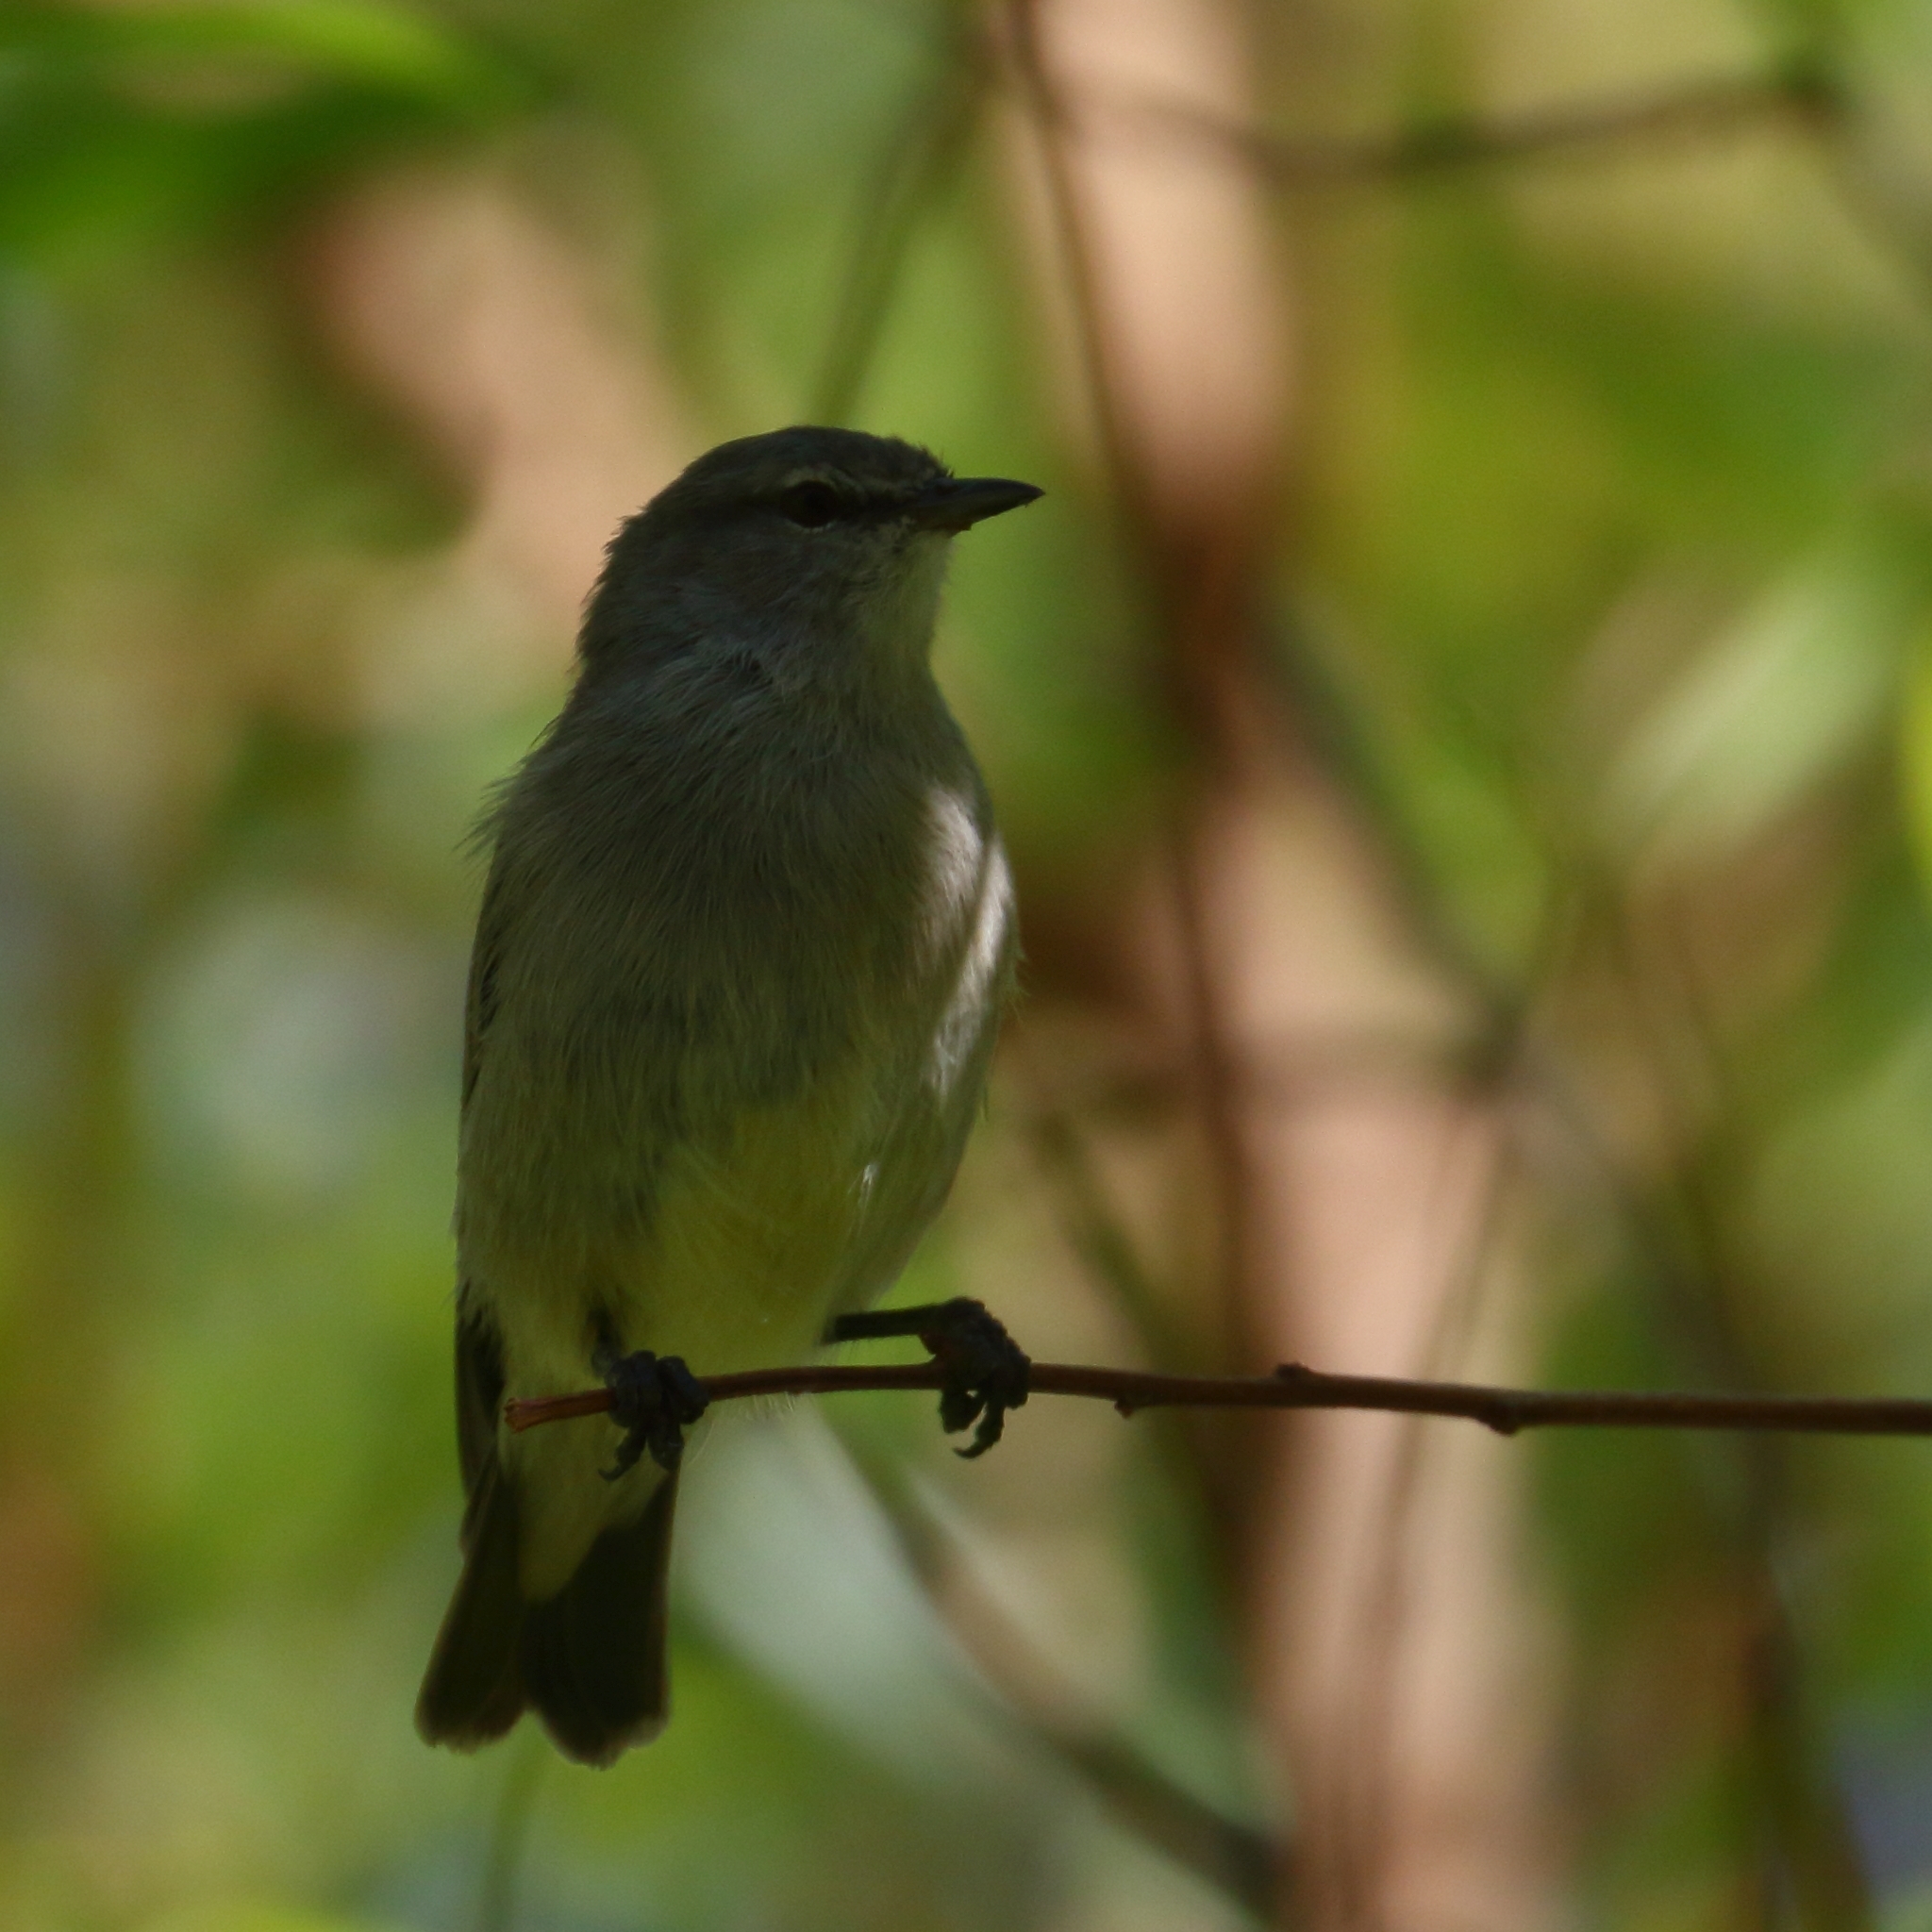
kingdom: Animalia
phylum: Chordata
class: Aves
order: Passeriformes
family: Cisticolidae
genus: Eremomela
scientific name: Eremomela icteropygialis
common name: Yellow-bellied eremomela
